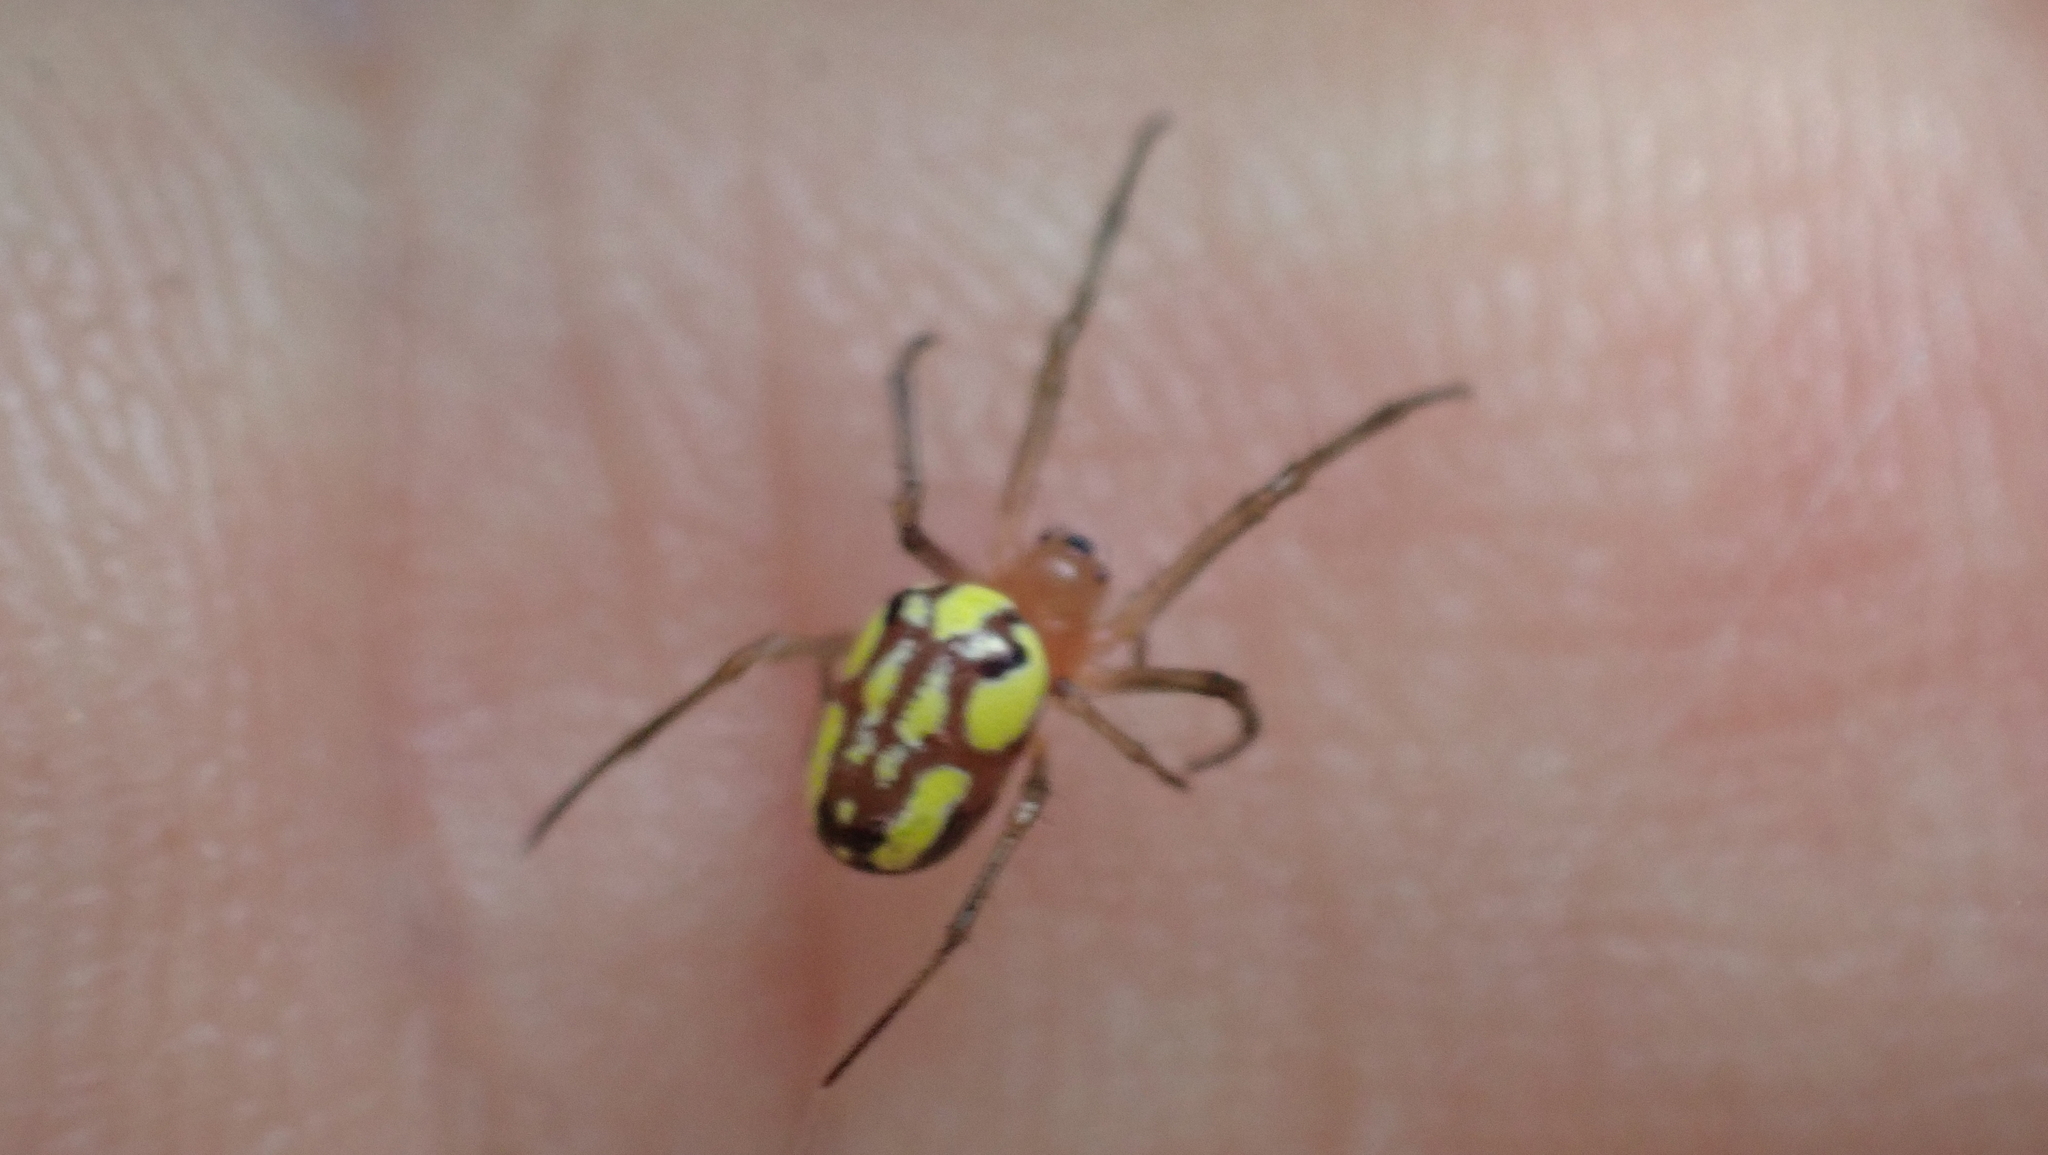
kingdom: Animalia
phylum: Arthropoda
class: Arachnida
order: Araneae
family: Araneidae
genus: Alpaida
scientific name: Alpaida championi
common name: Orb weavers
